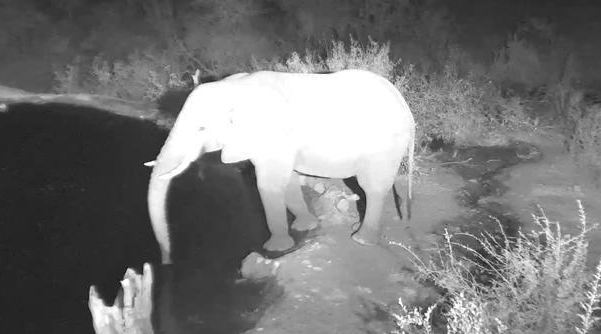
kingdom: Animalia
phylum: Chordata
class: Mammalia
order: Proboscidea
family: Elephantidae
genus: Loxodonta
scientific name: Loxodonta africana
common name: African elephant
